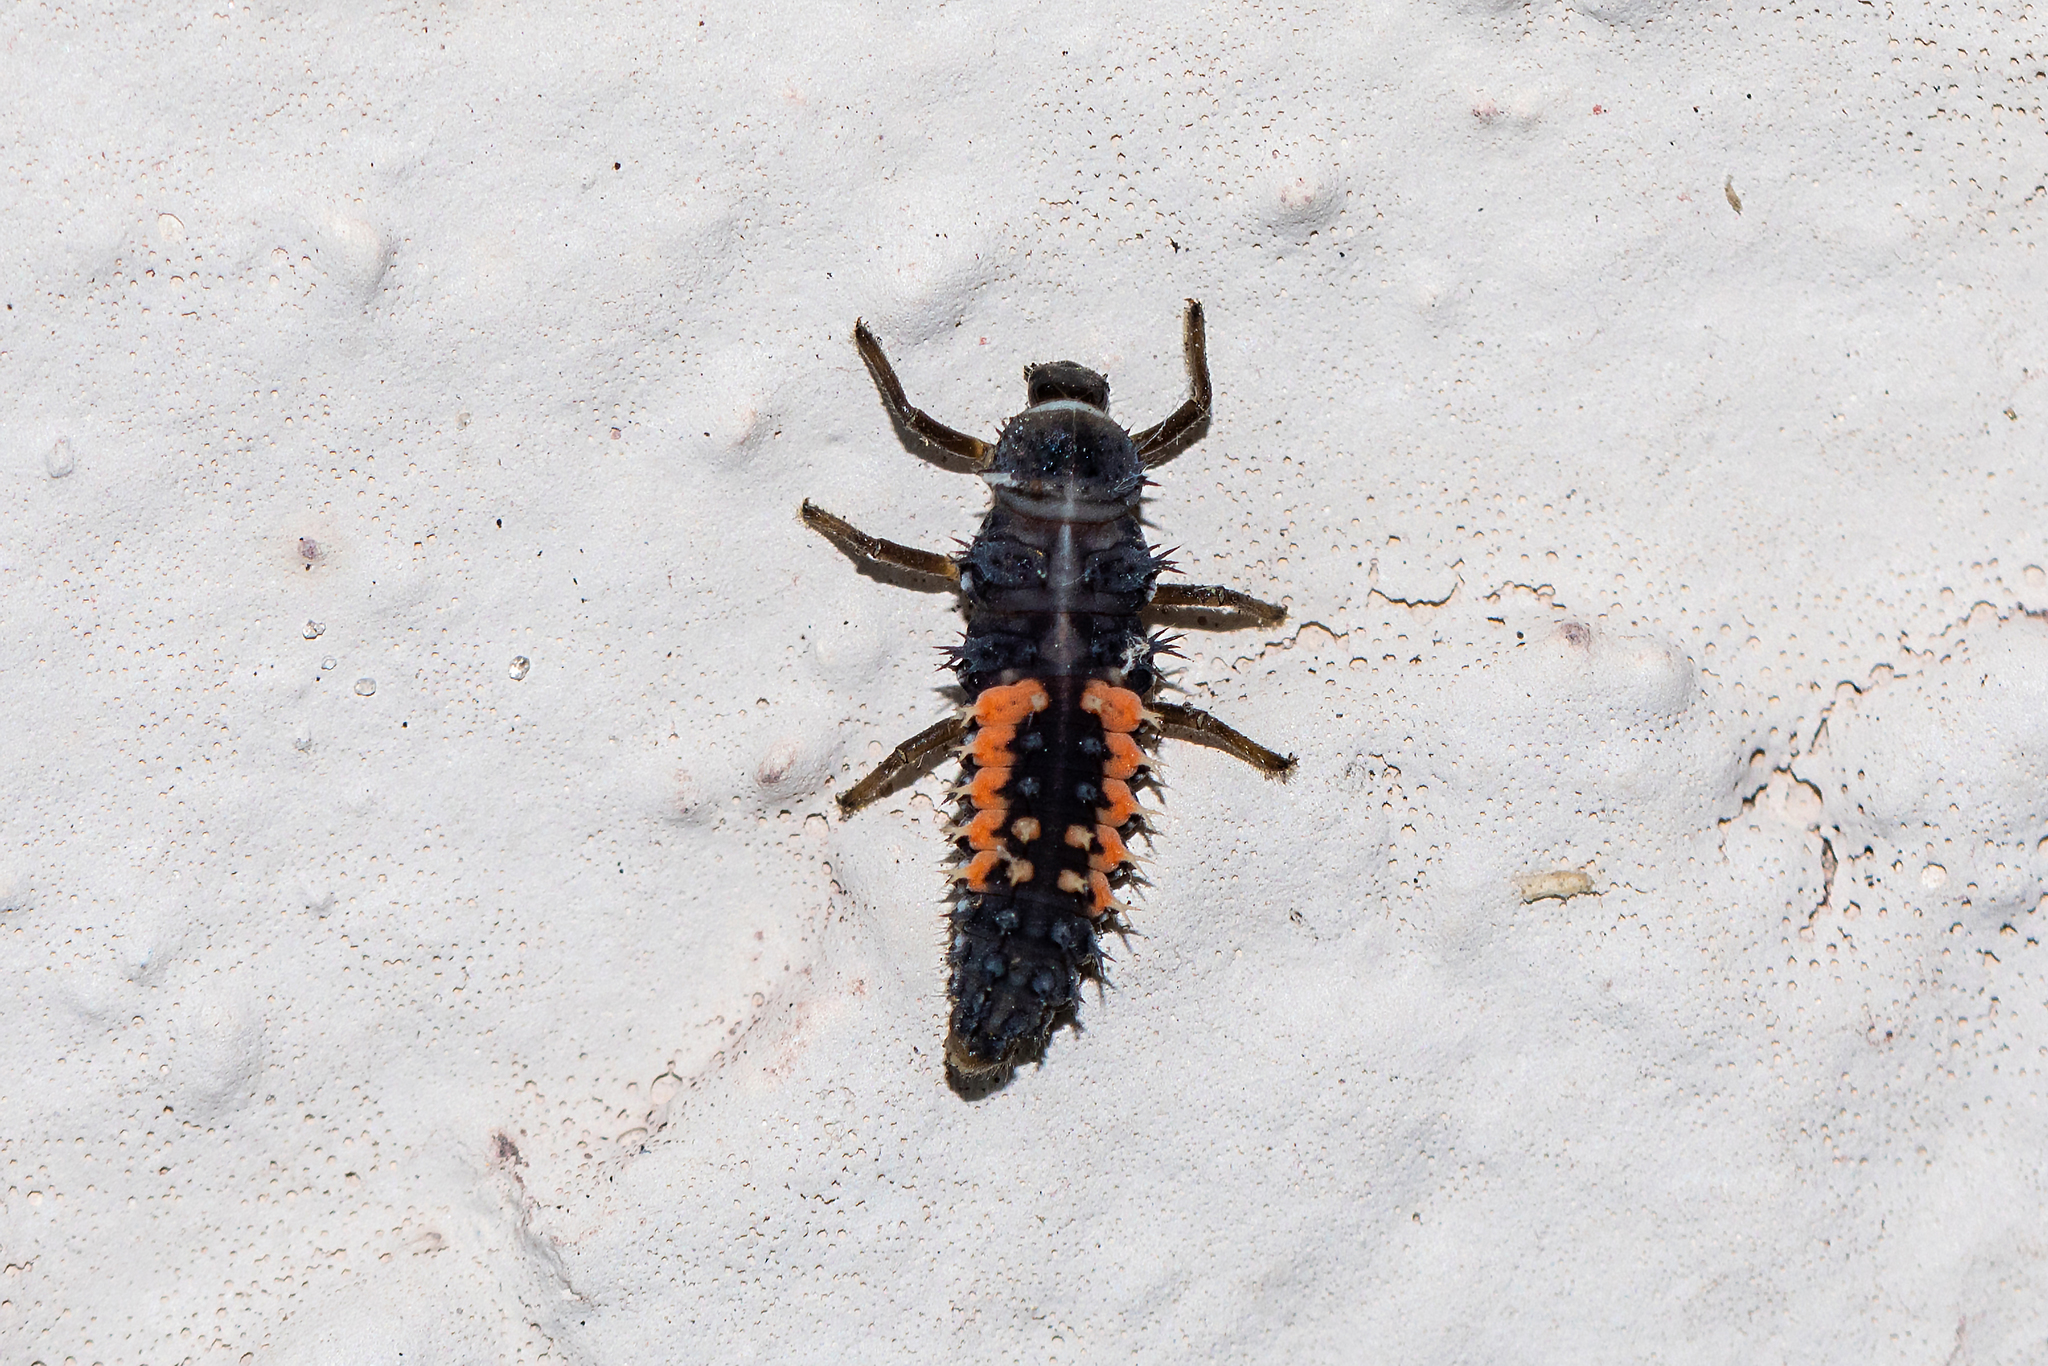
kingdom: Animalia
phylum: Arthropoda
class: Insecta
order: Coleoptera
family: Coccinellidae
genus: Harmonia
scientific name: Harmonia axyridis
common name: Harlequin ladybird
